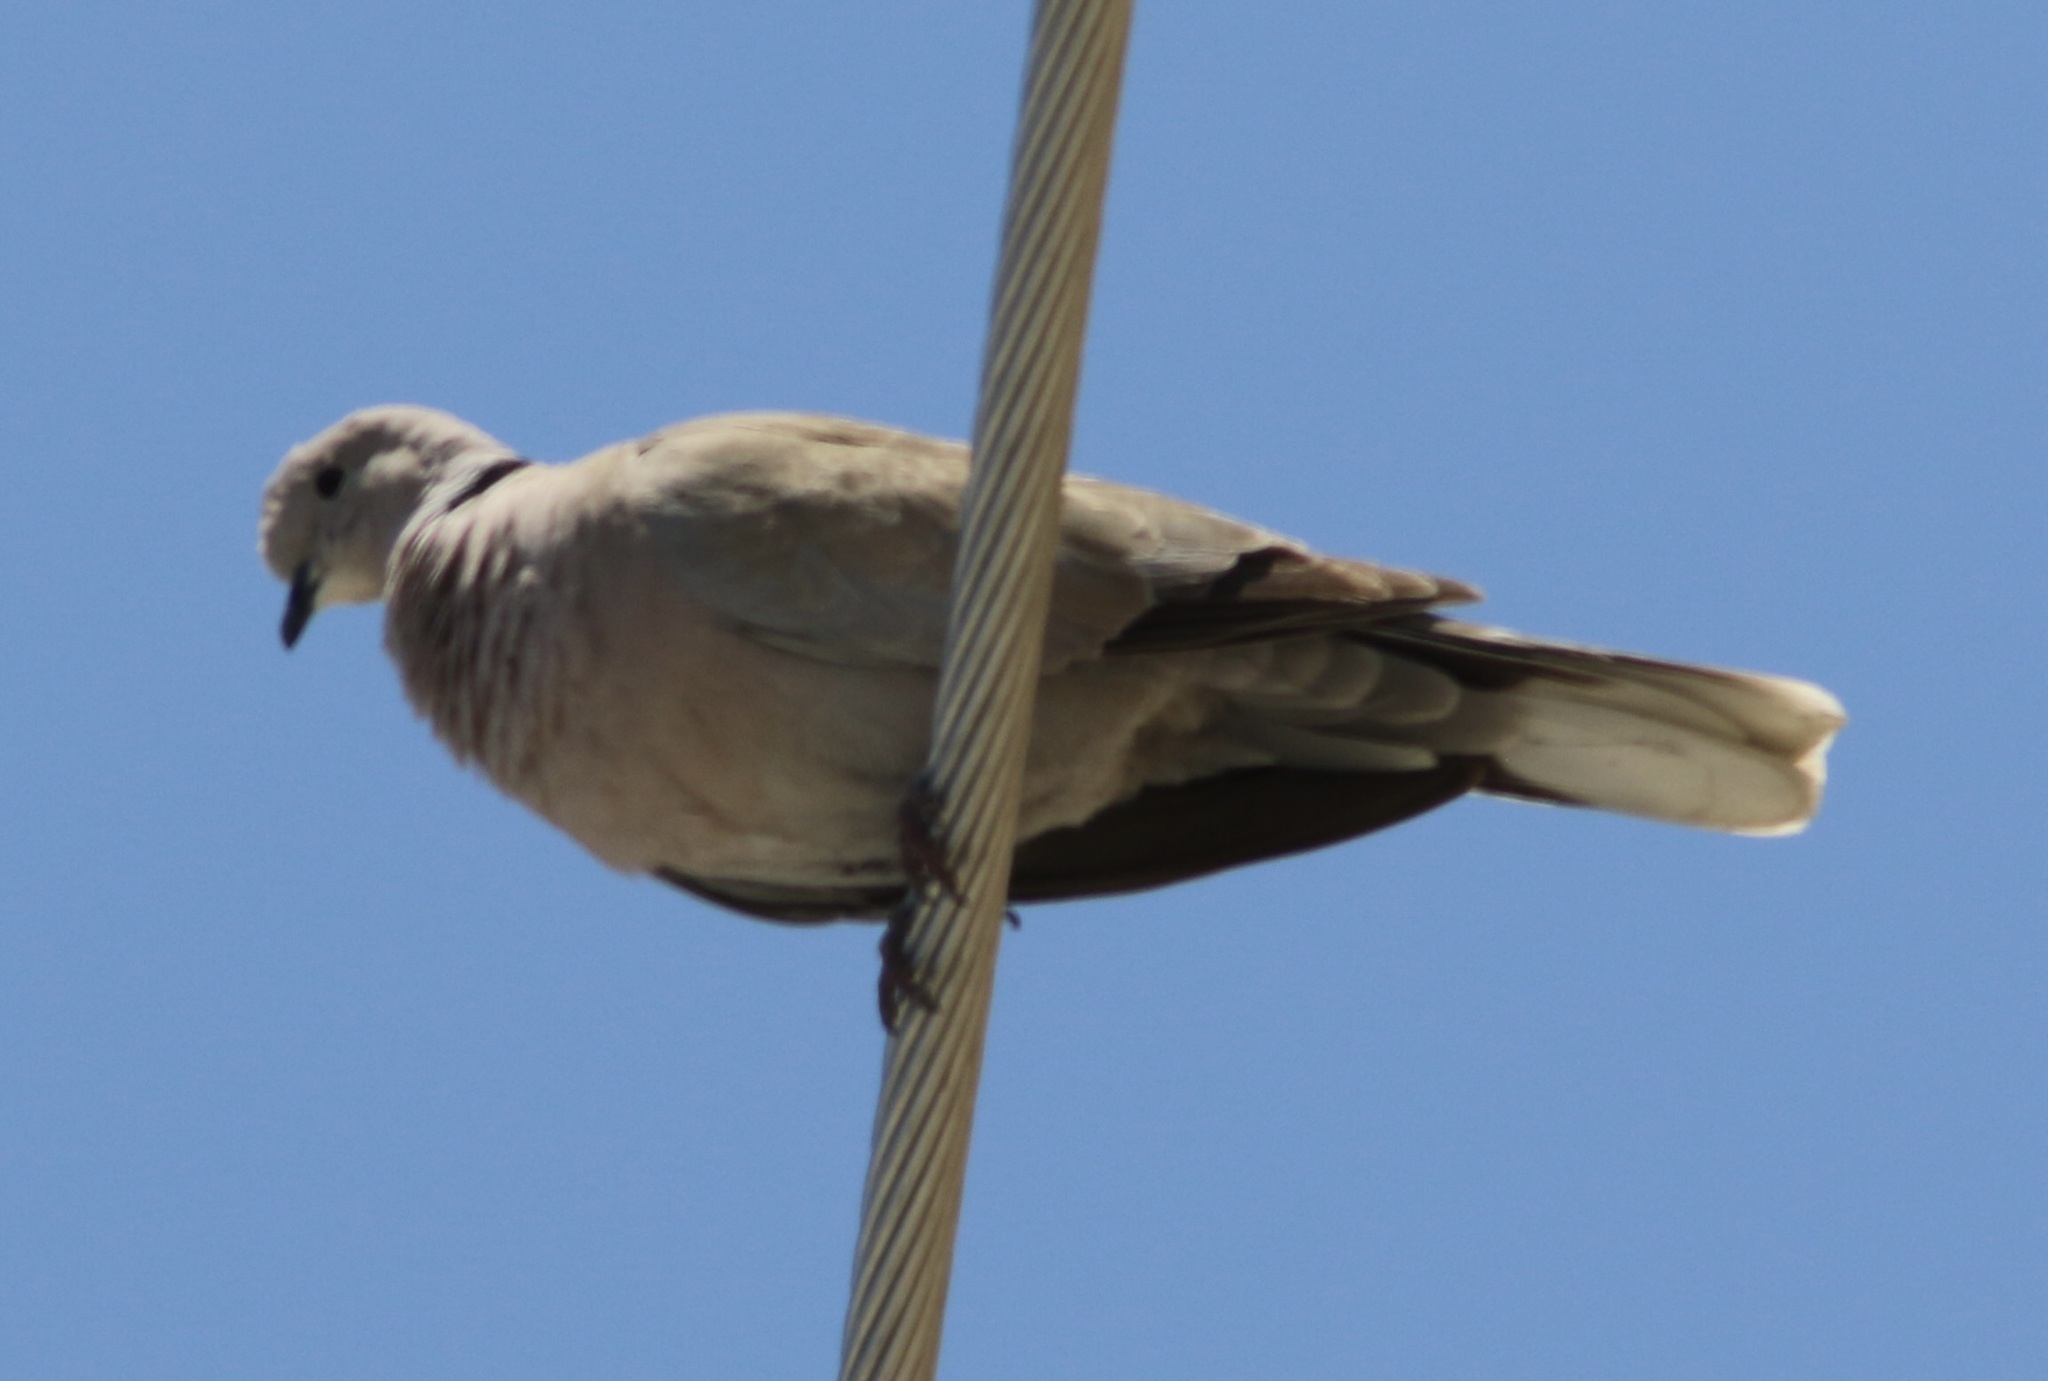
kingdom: Animalia
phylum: Chordata
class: Aves
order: Columbiformes
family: Columbidae
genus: Streptopelia
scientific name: Streptopelia decaocto
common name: Eurasian collared dove
